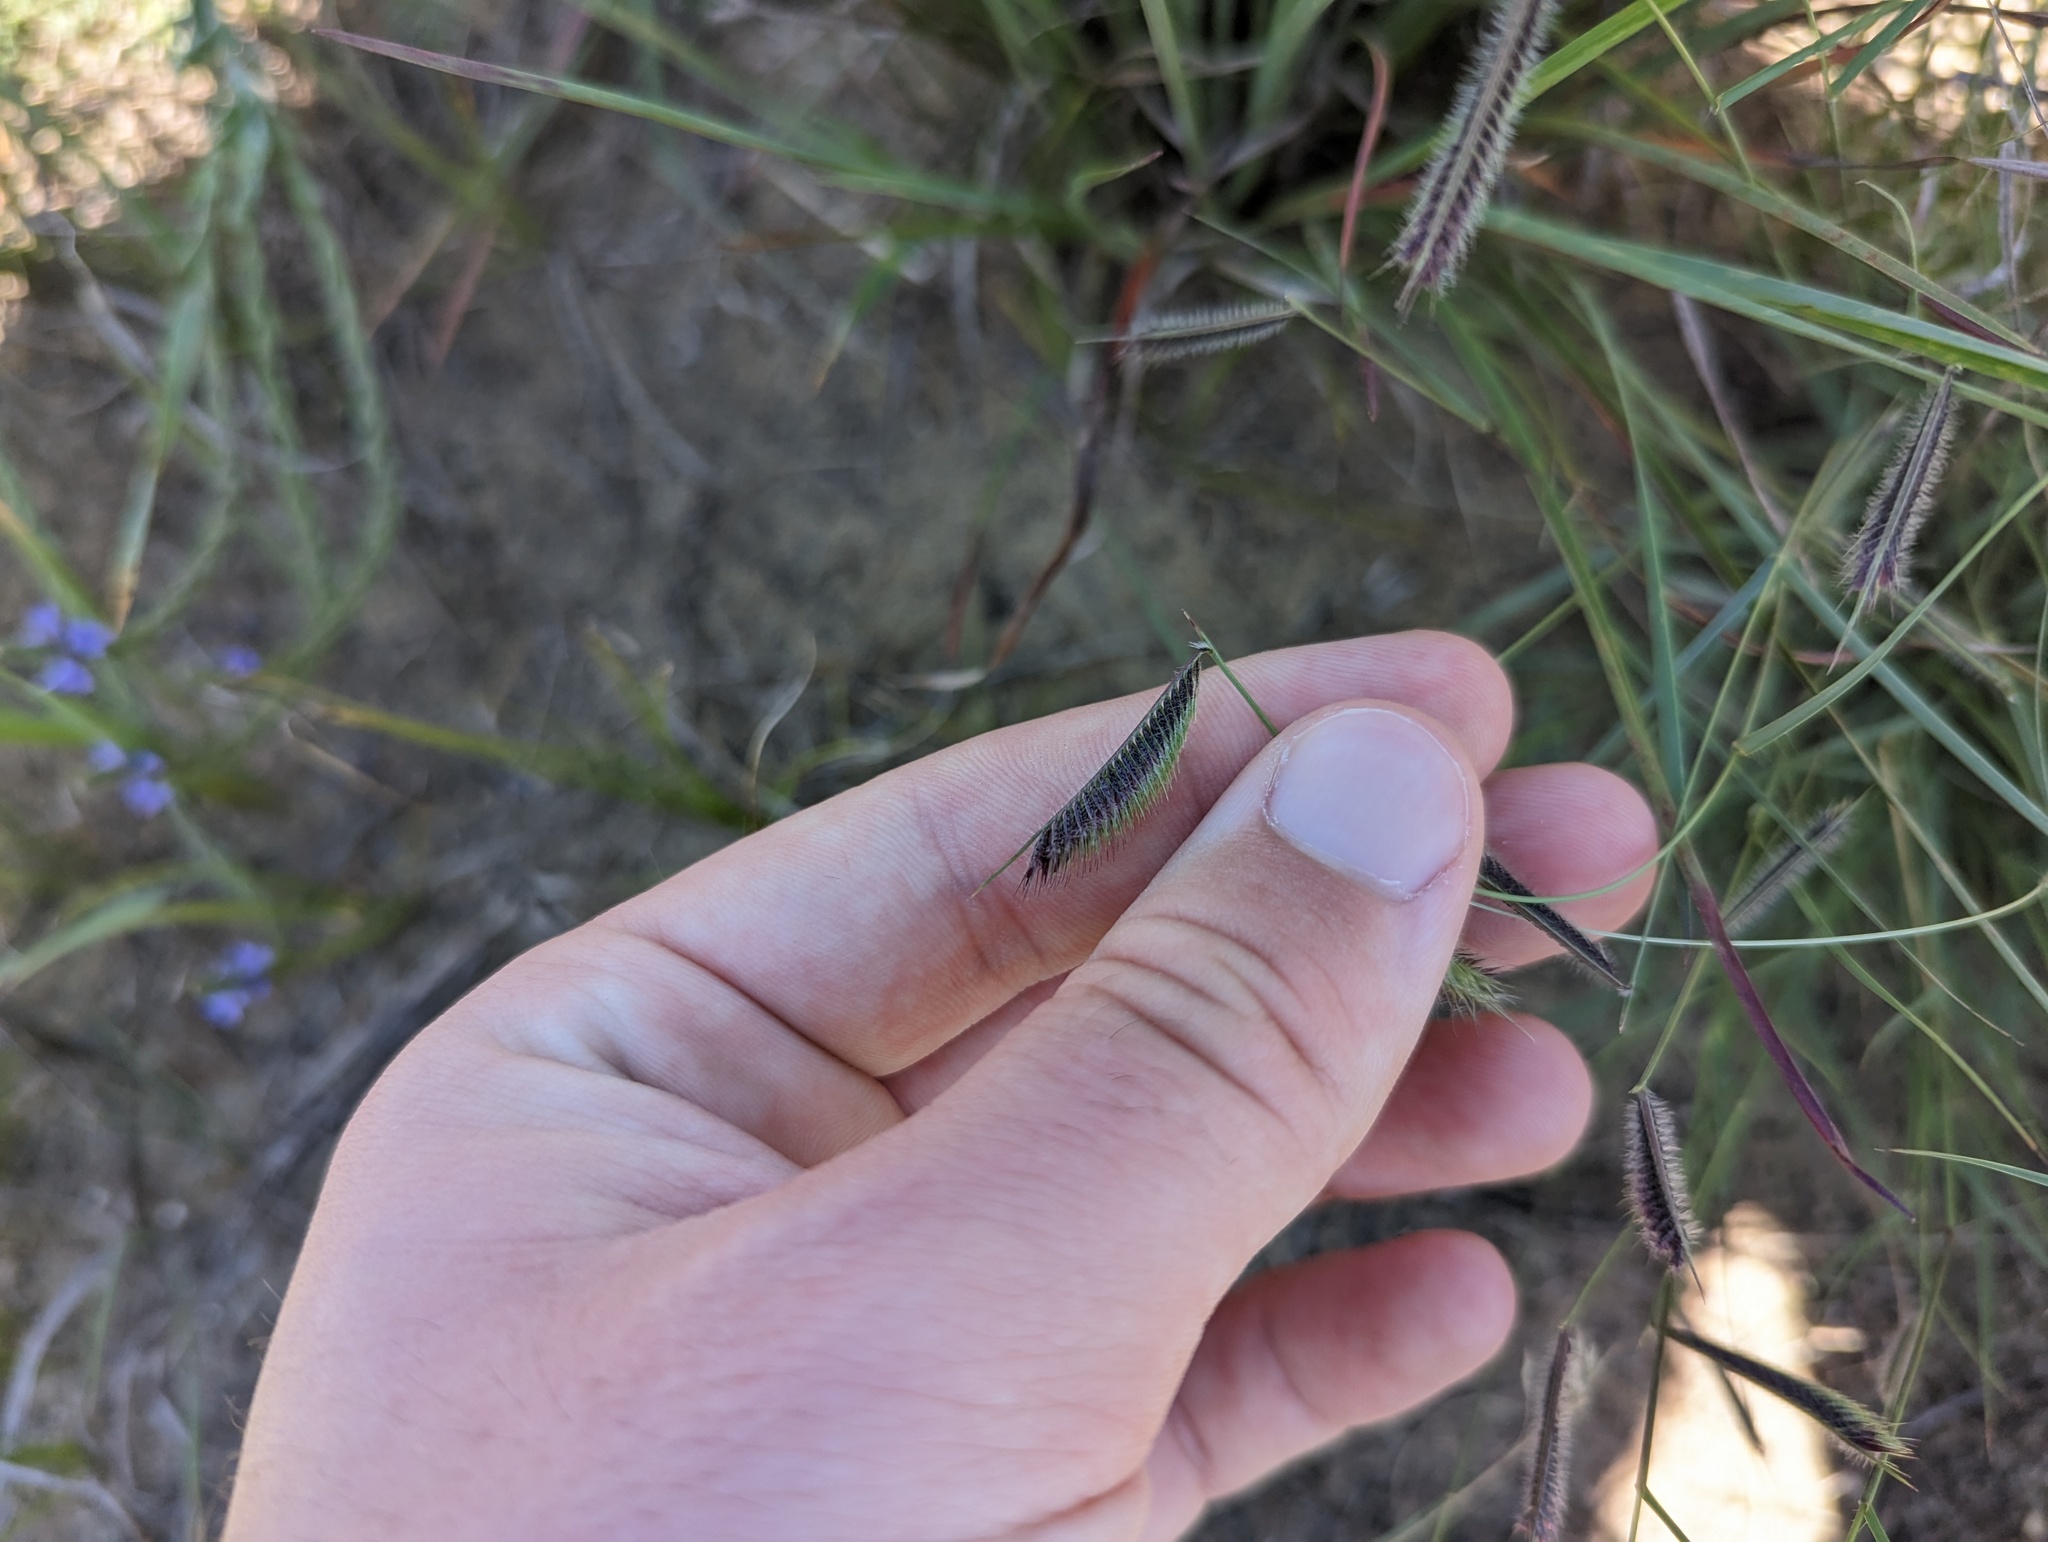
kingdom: Plantae
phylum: Tracheophyta
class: Liliopsida
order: Poales
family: Poaceae
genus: Bouteloua
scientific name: Bouteloua hirsuta
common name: Hairy grama
